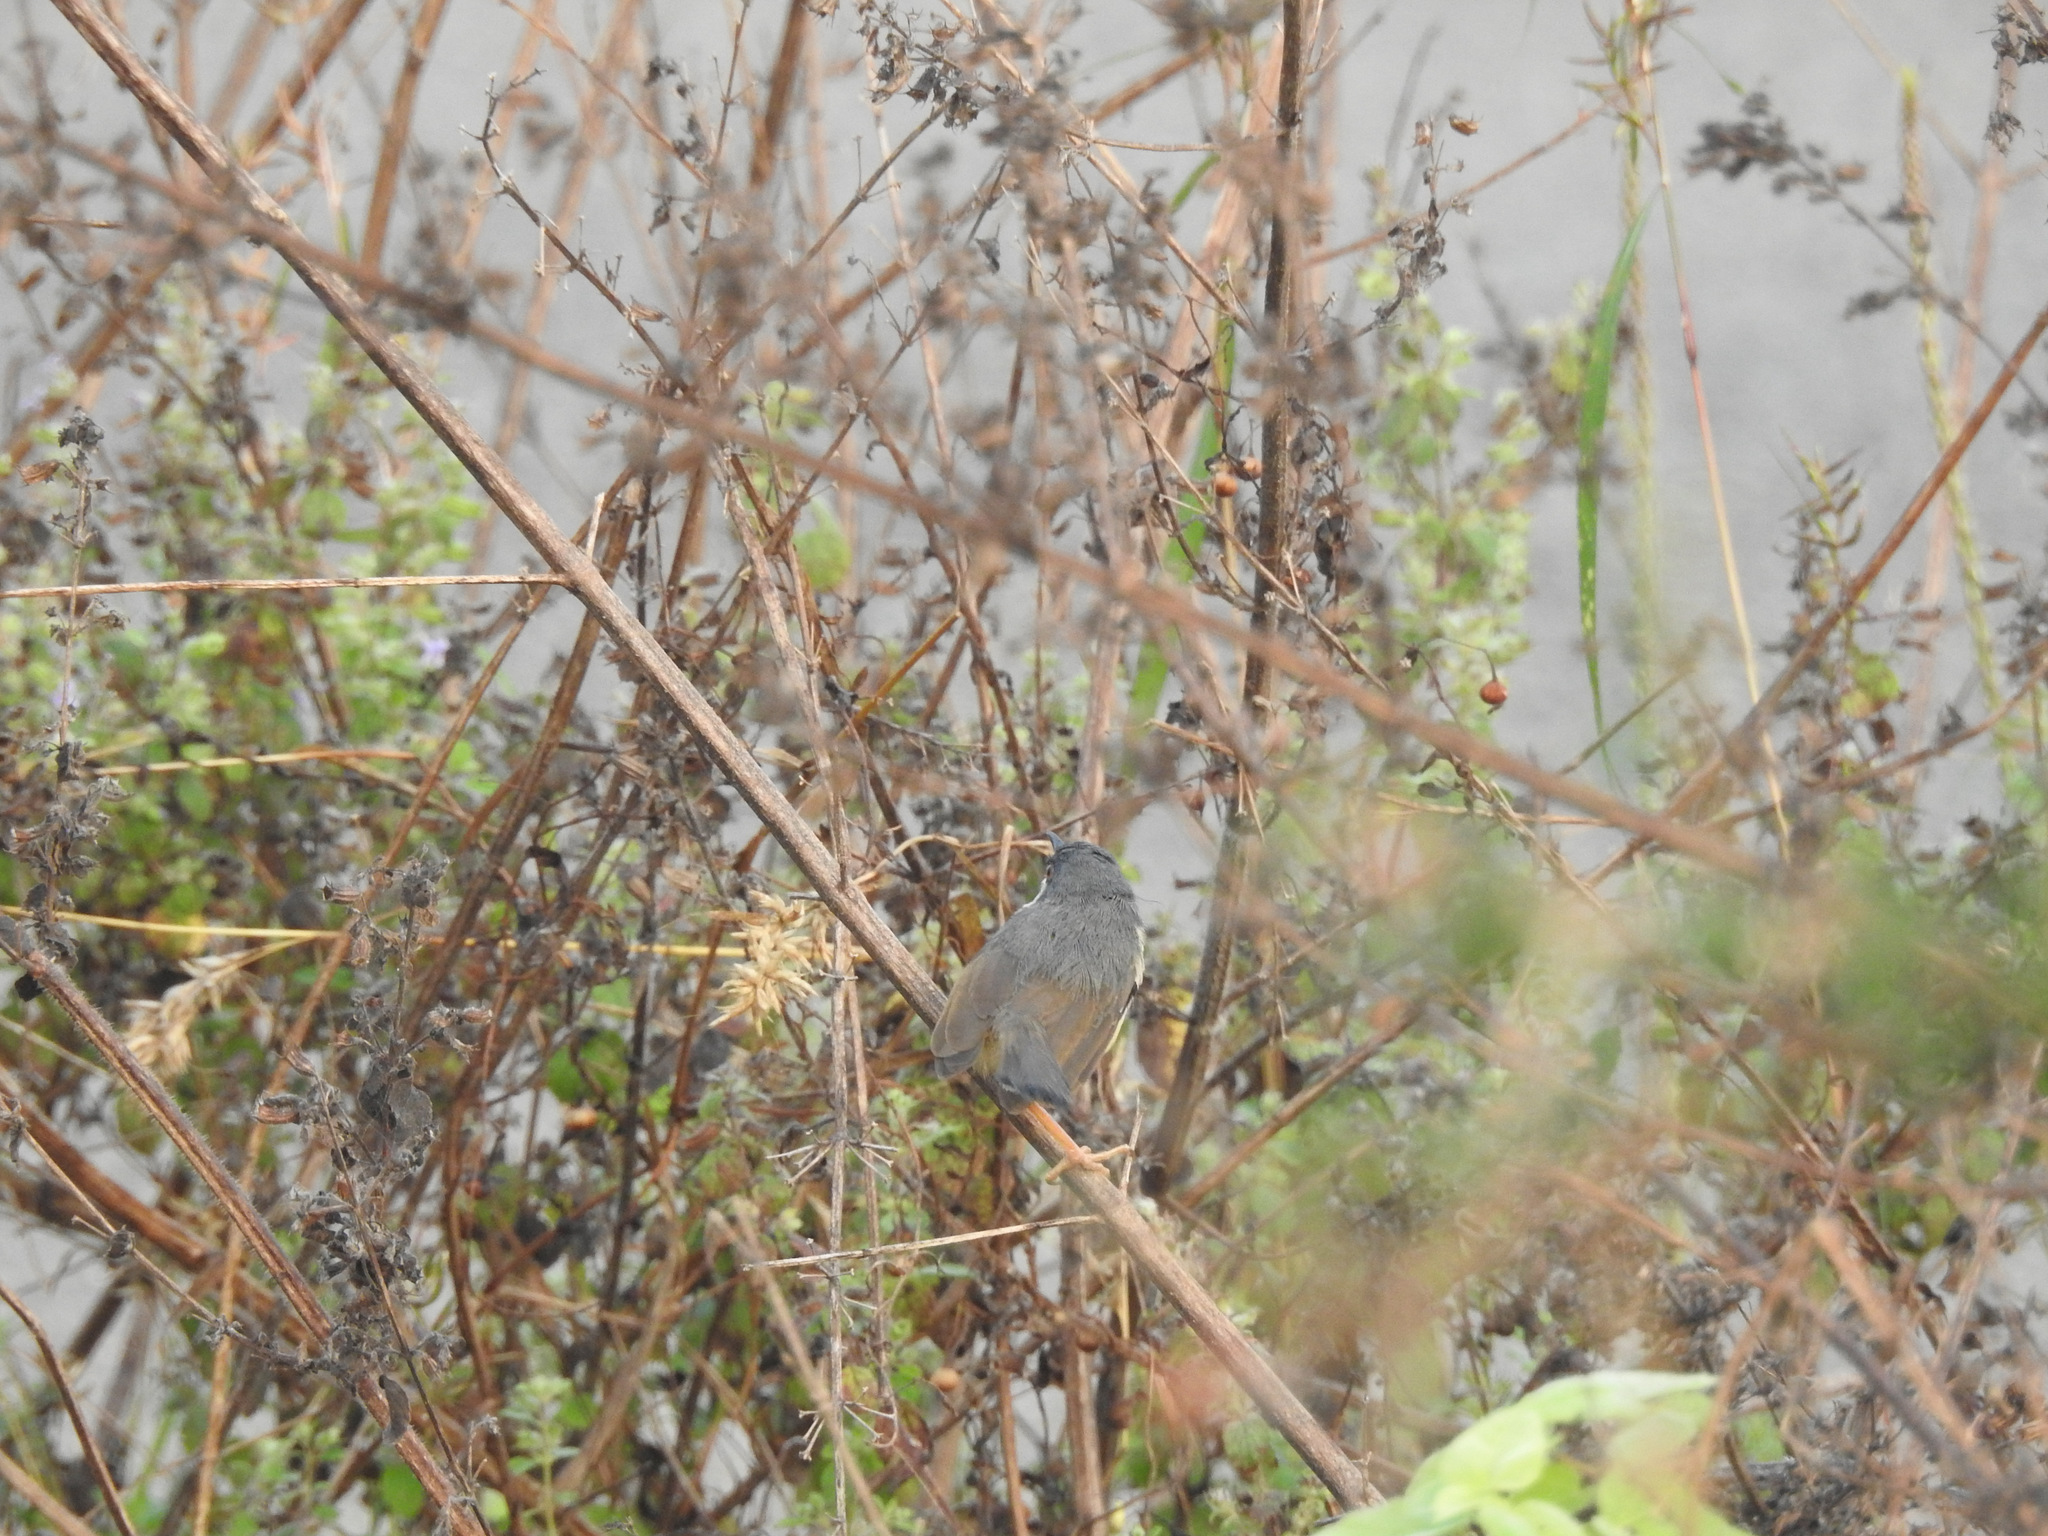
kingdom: Animalia
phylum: Chordata
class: Aves
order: Passeriformes
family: Cisticolidae
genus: Prinia
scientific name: Prinia socialis
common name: Ashy prinia
